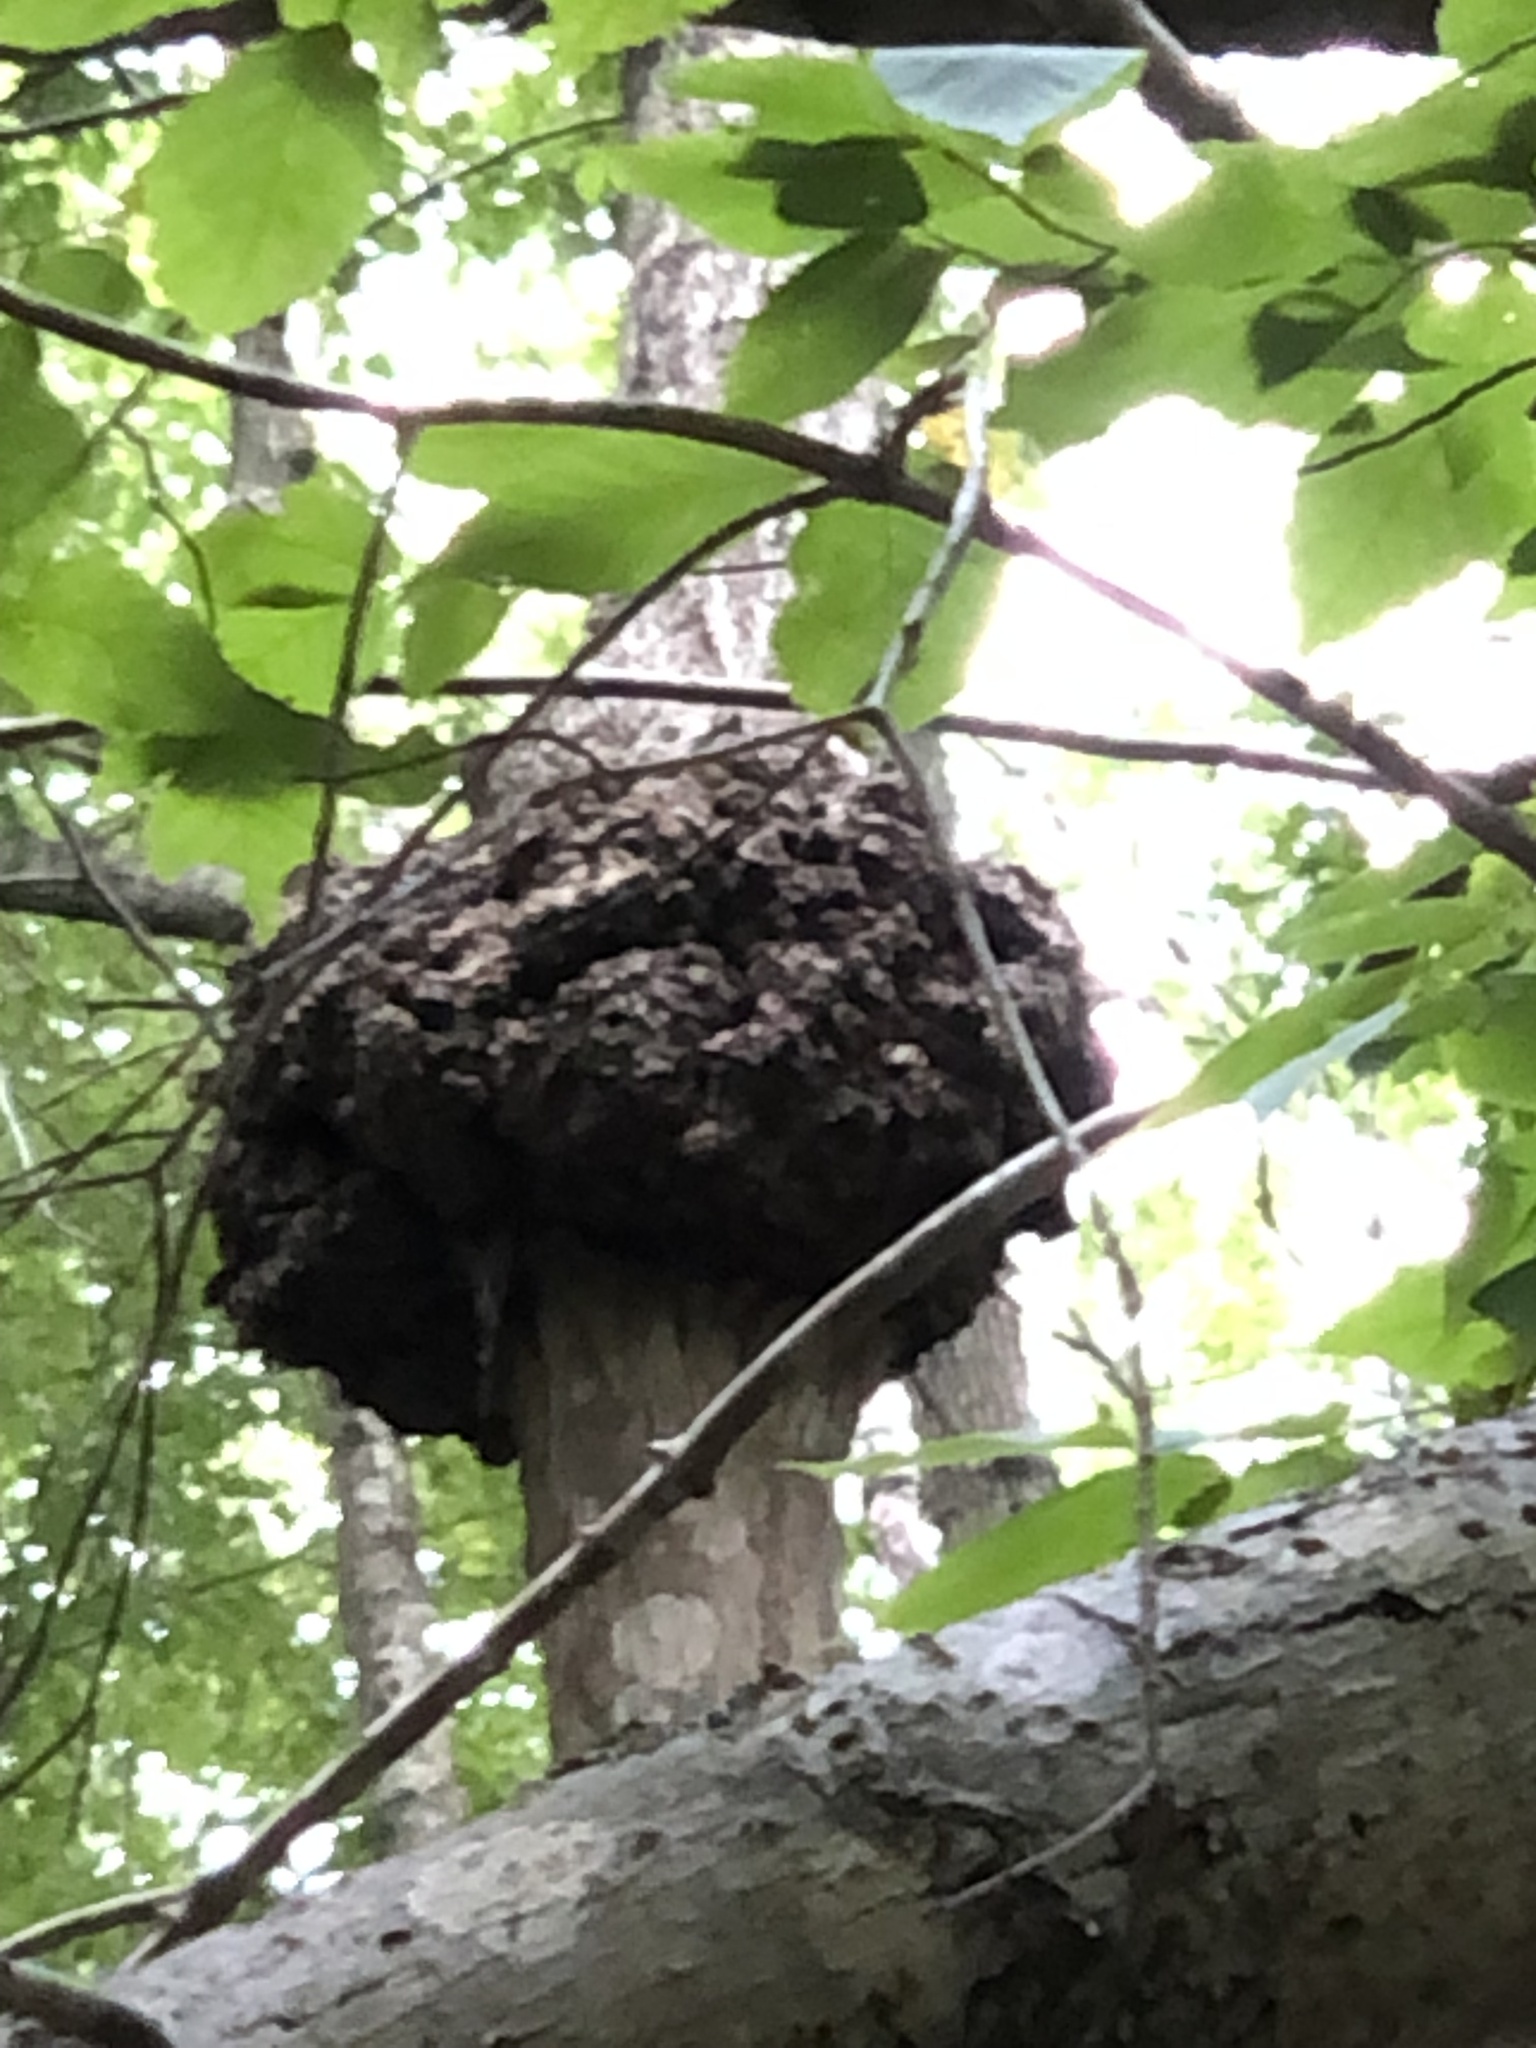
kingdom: Bacteria
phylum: Proteobacteria
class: Alphaproteobacteria
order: Rhizobiales
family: Rhizobiaceae
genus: Rhizobium
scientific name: Rhizobium Agrobacterium radiobacter
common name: Bacterial crown gall
